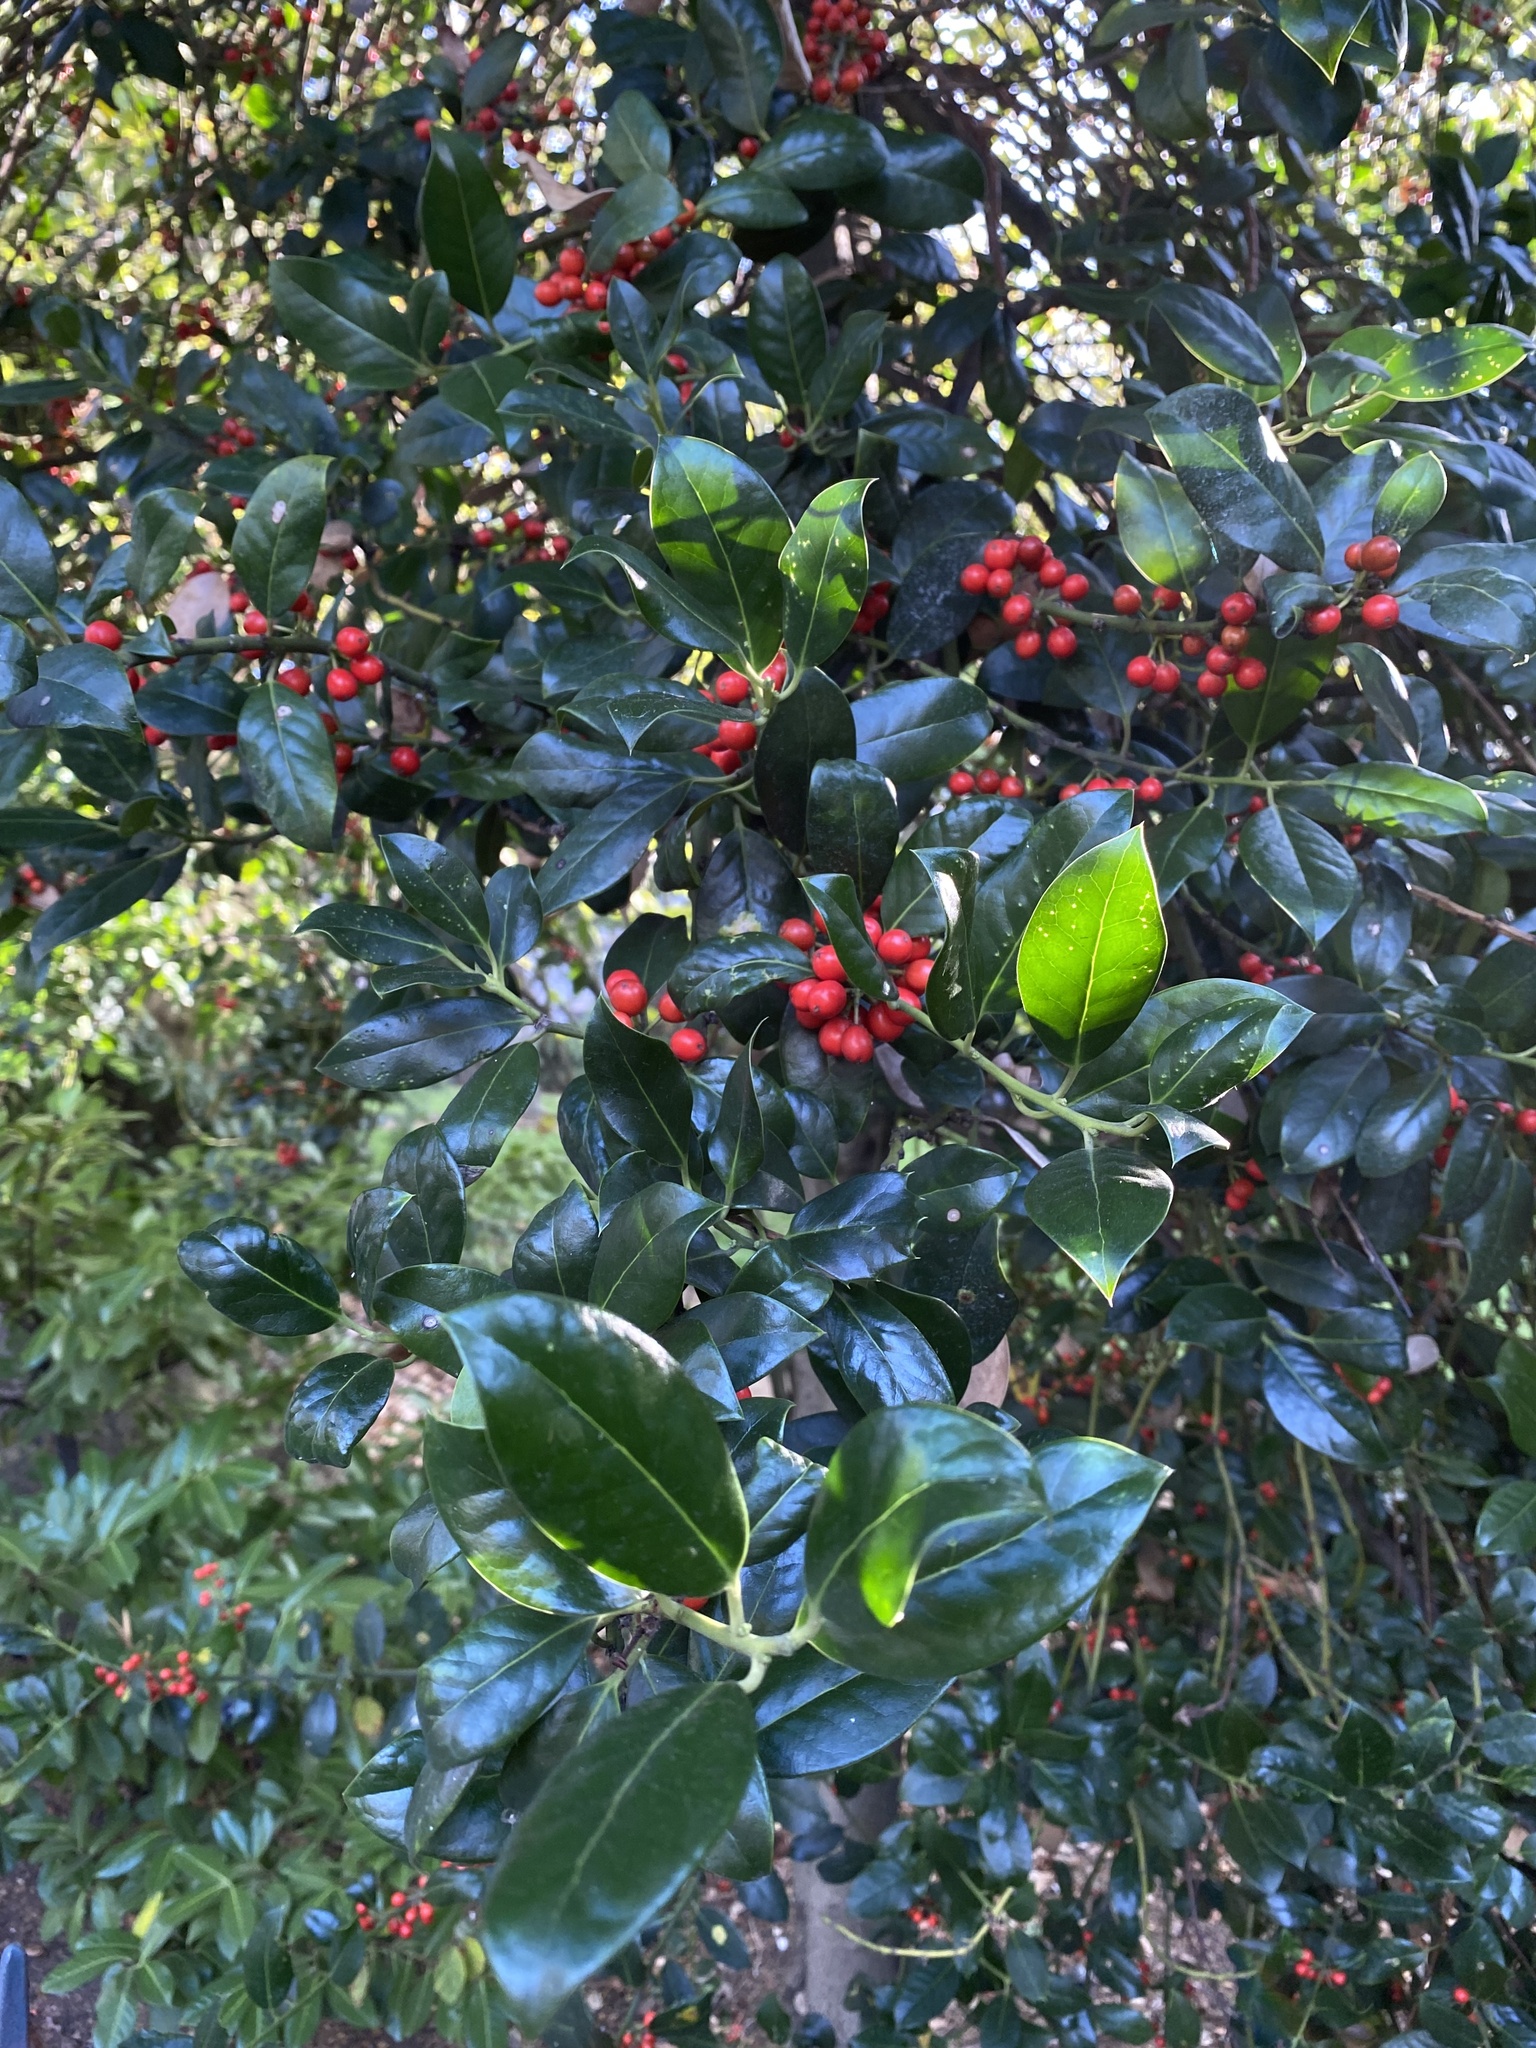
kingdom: Plantae
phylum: Tracheophyta
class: Magnoliopsida
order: Aquifoliales
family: Aquifoliaceae
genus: Ilex
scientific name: Ilex aquifolium
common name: English holly
